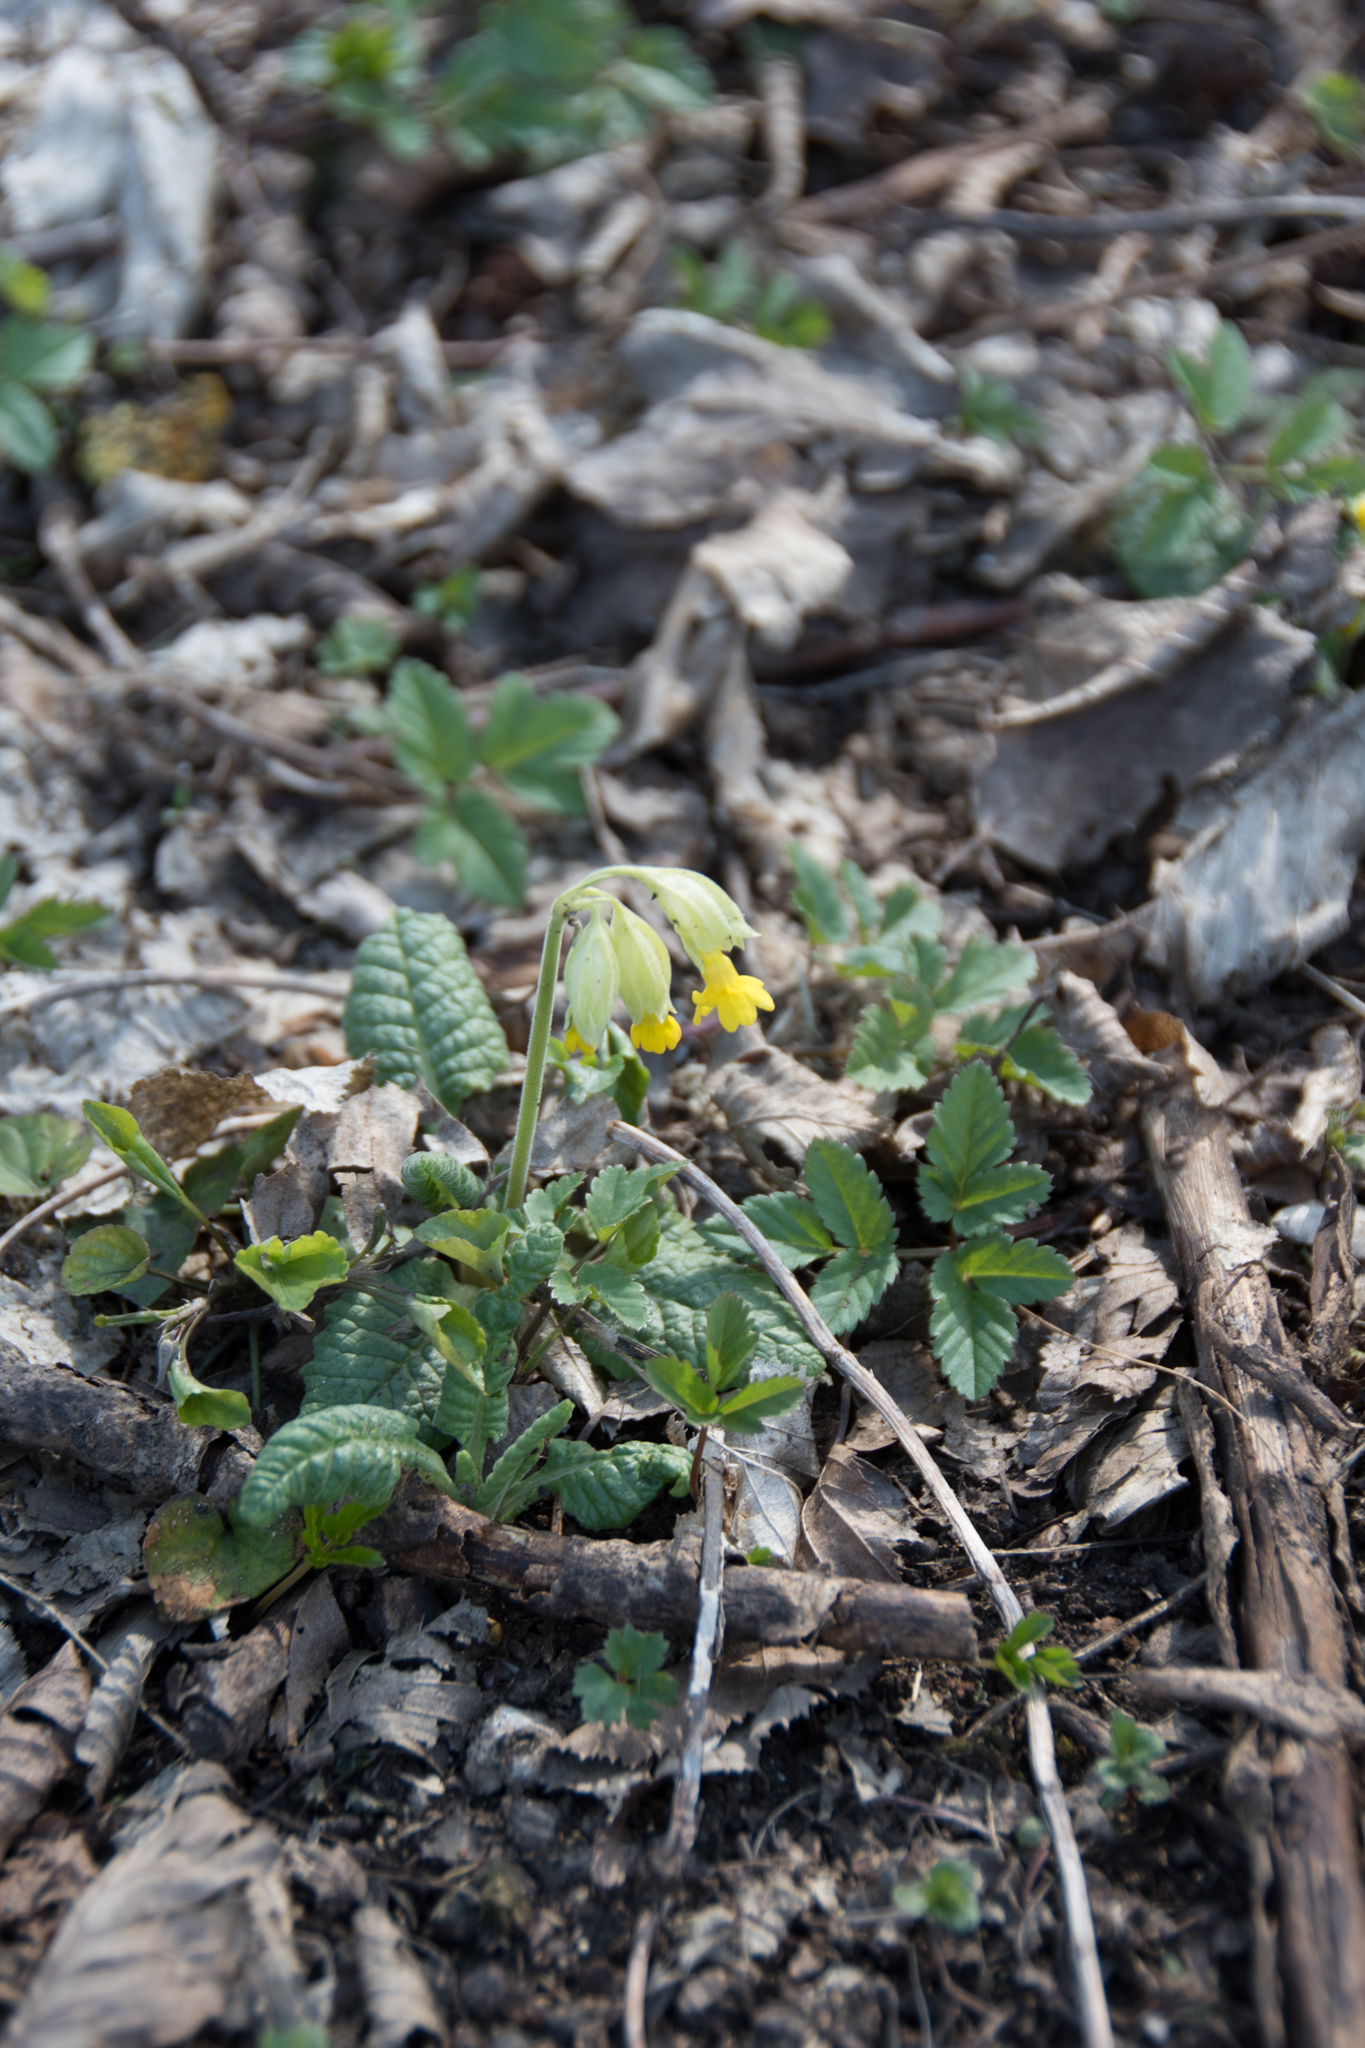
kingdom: Plantae
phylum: Tracheophyta
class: Magnoliopsida
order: Ericales
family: Primulaceae
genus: Primula
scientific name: Primula veris
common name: Cowslip
